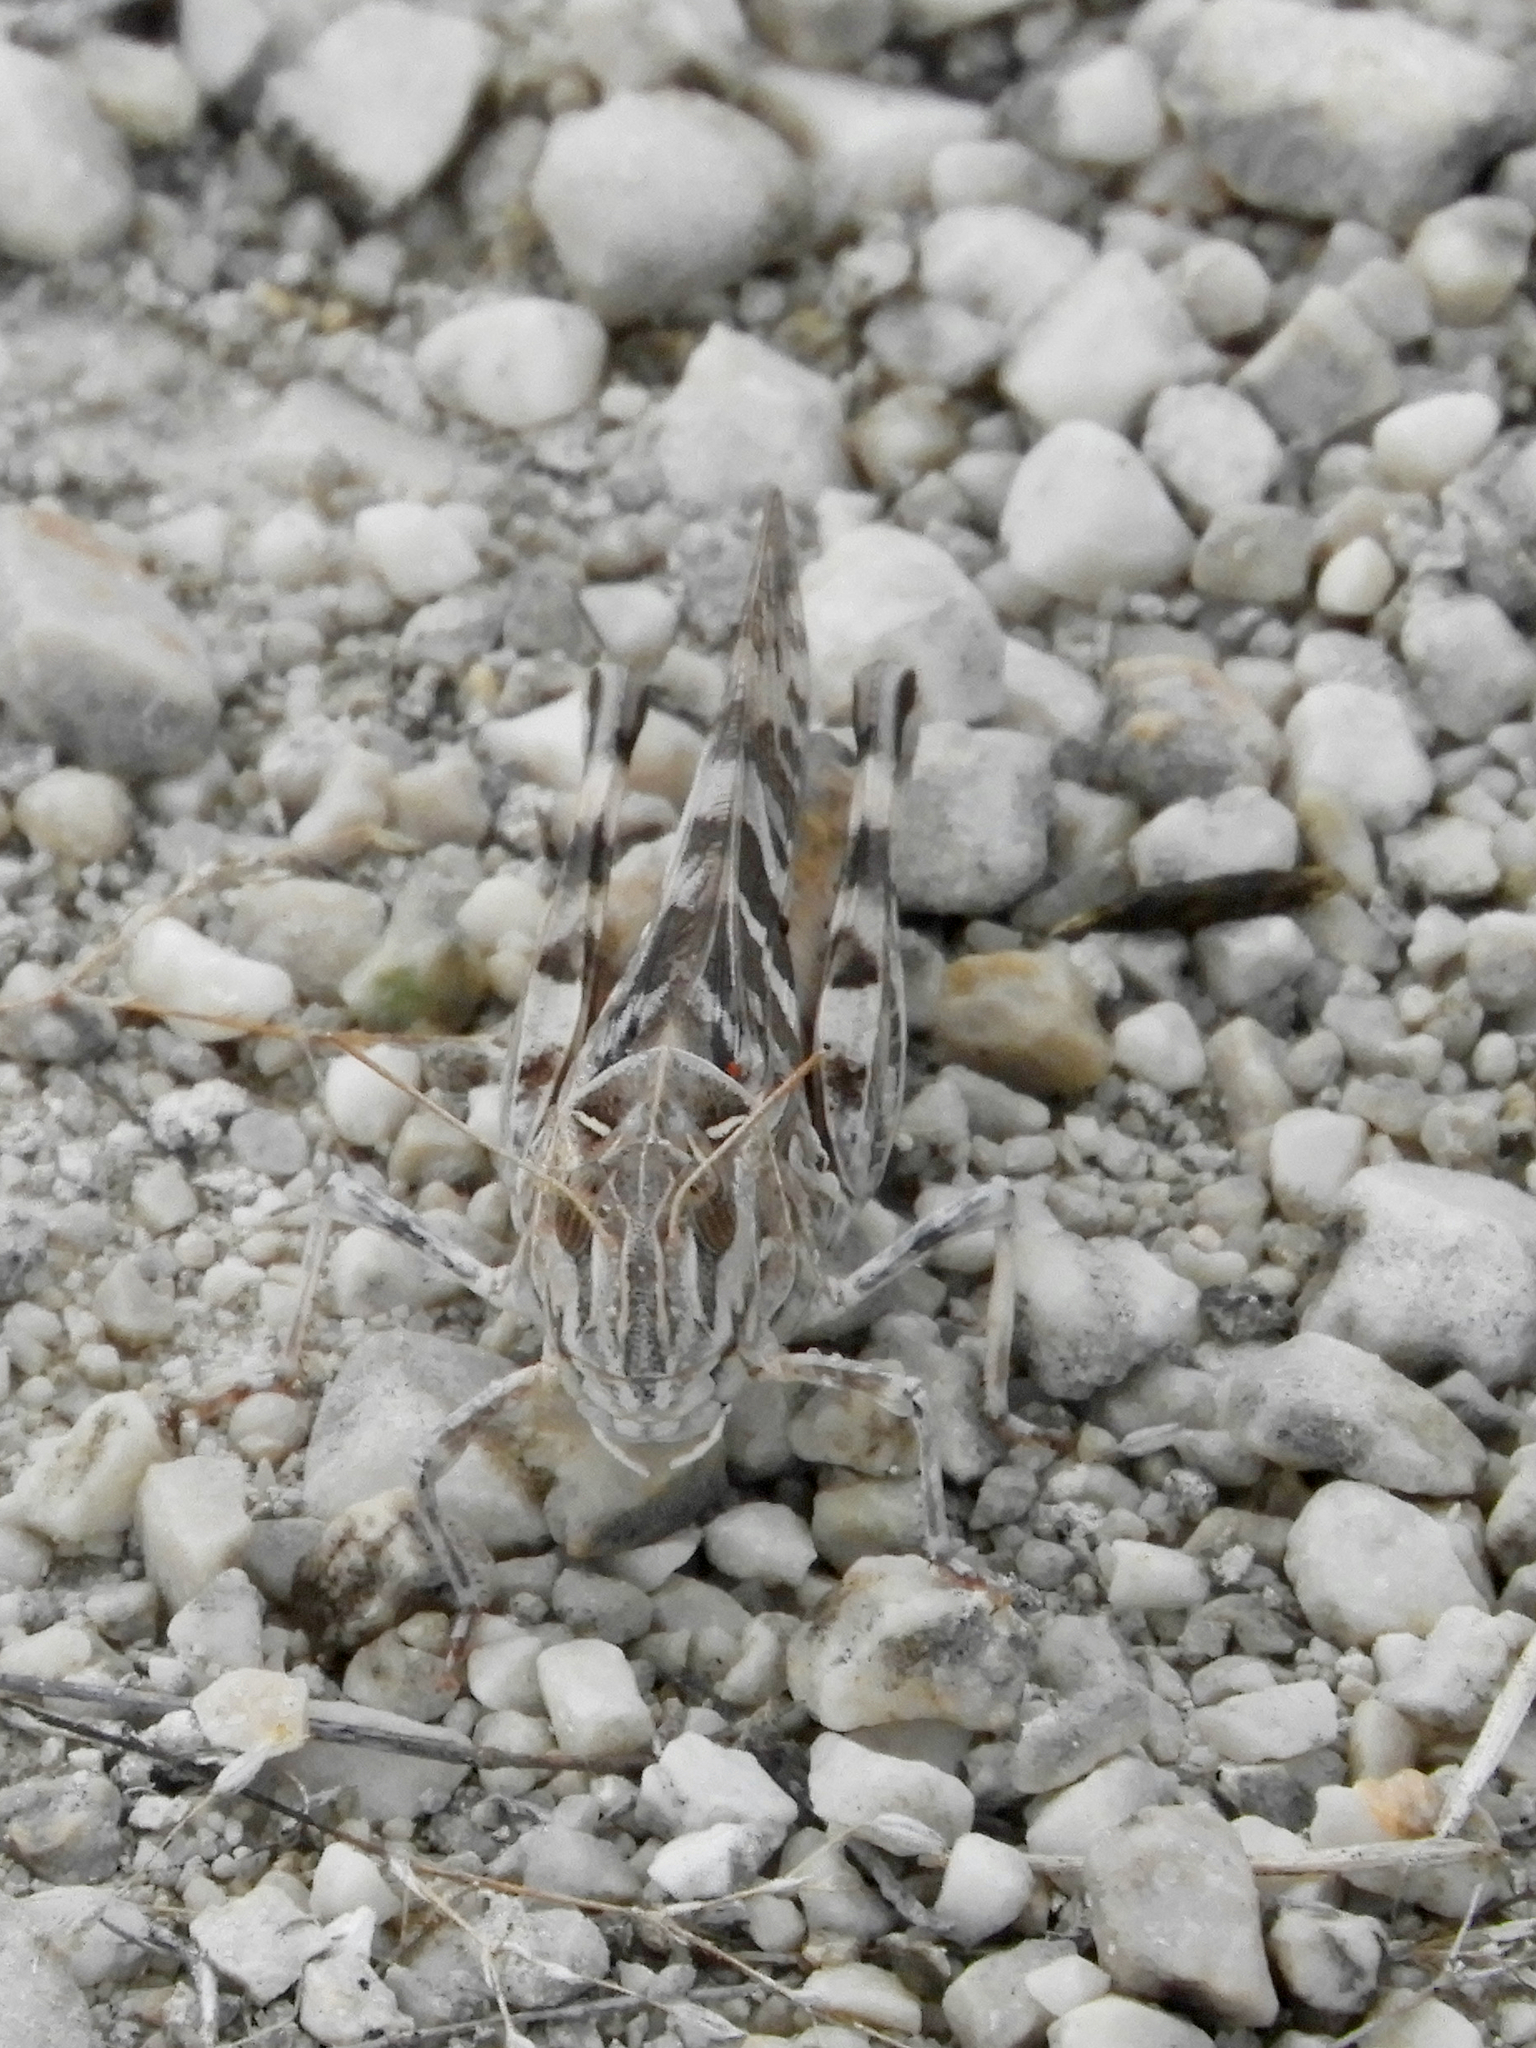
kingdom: Animalia
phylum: Arthropoda
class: Insecta
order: Orthoptera
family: Acrididae
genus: Oedaleus
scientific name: Oedaleus decorus
